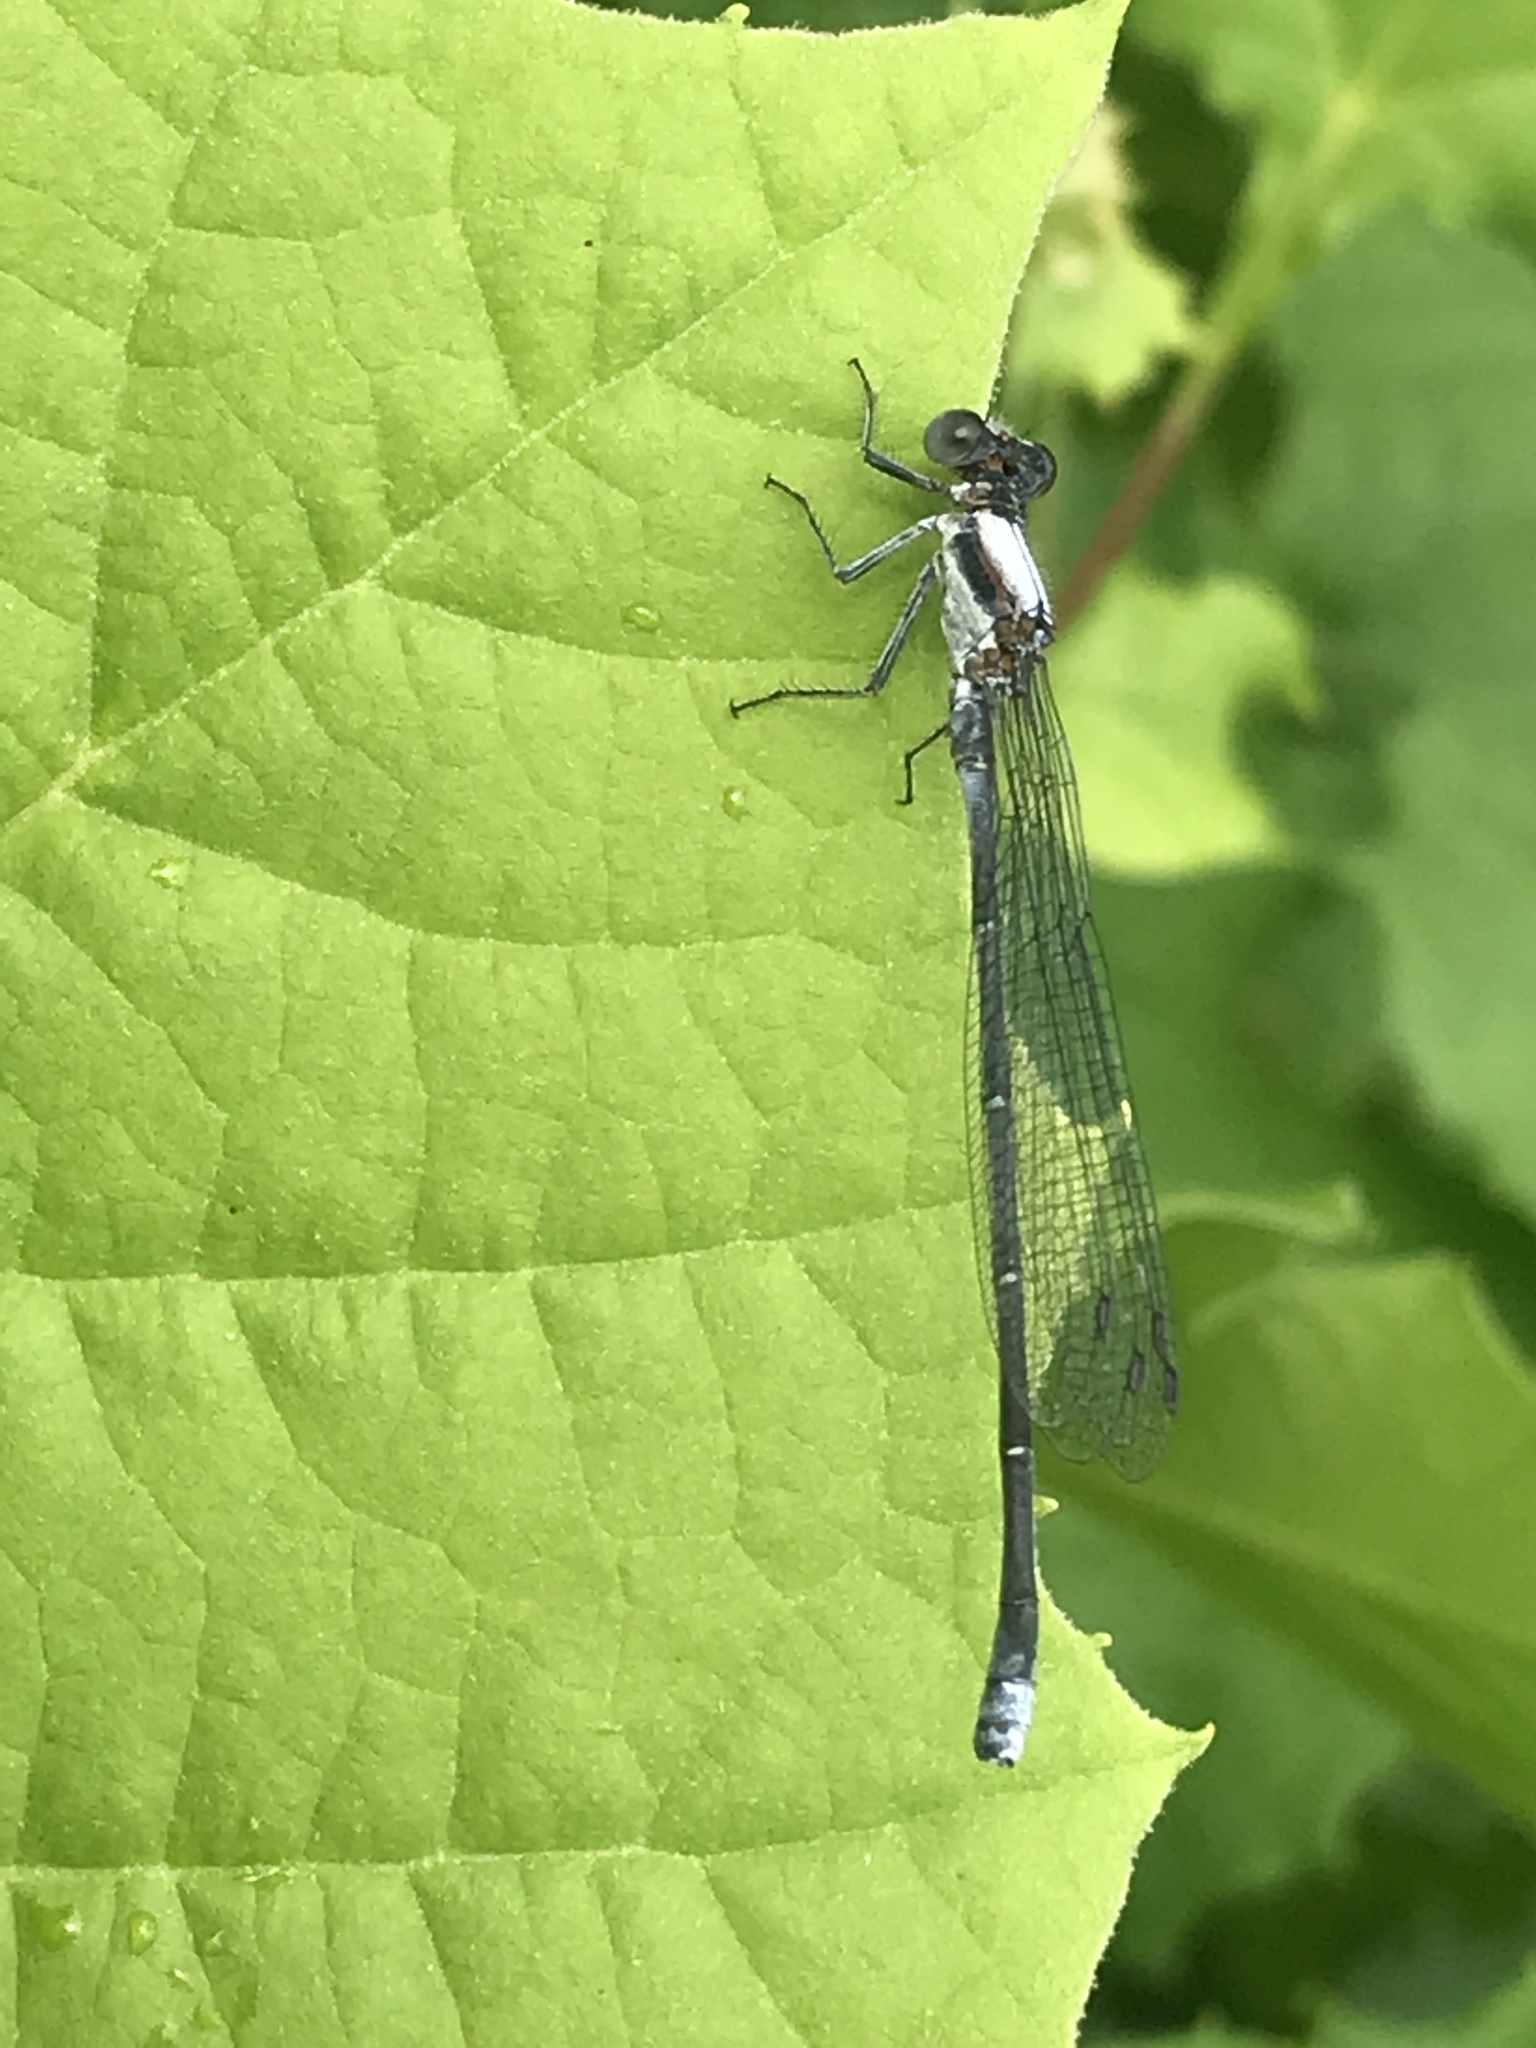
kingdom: Animalia
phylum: Arthropoda
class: Insecta
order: Odonata
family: Coenagrionidae
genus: Argia
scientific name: Argia moesta
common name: Powdered dancer
